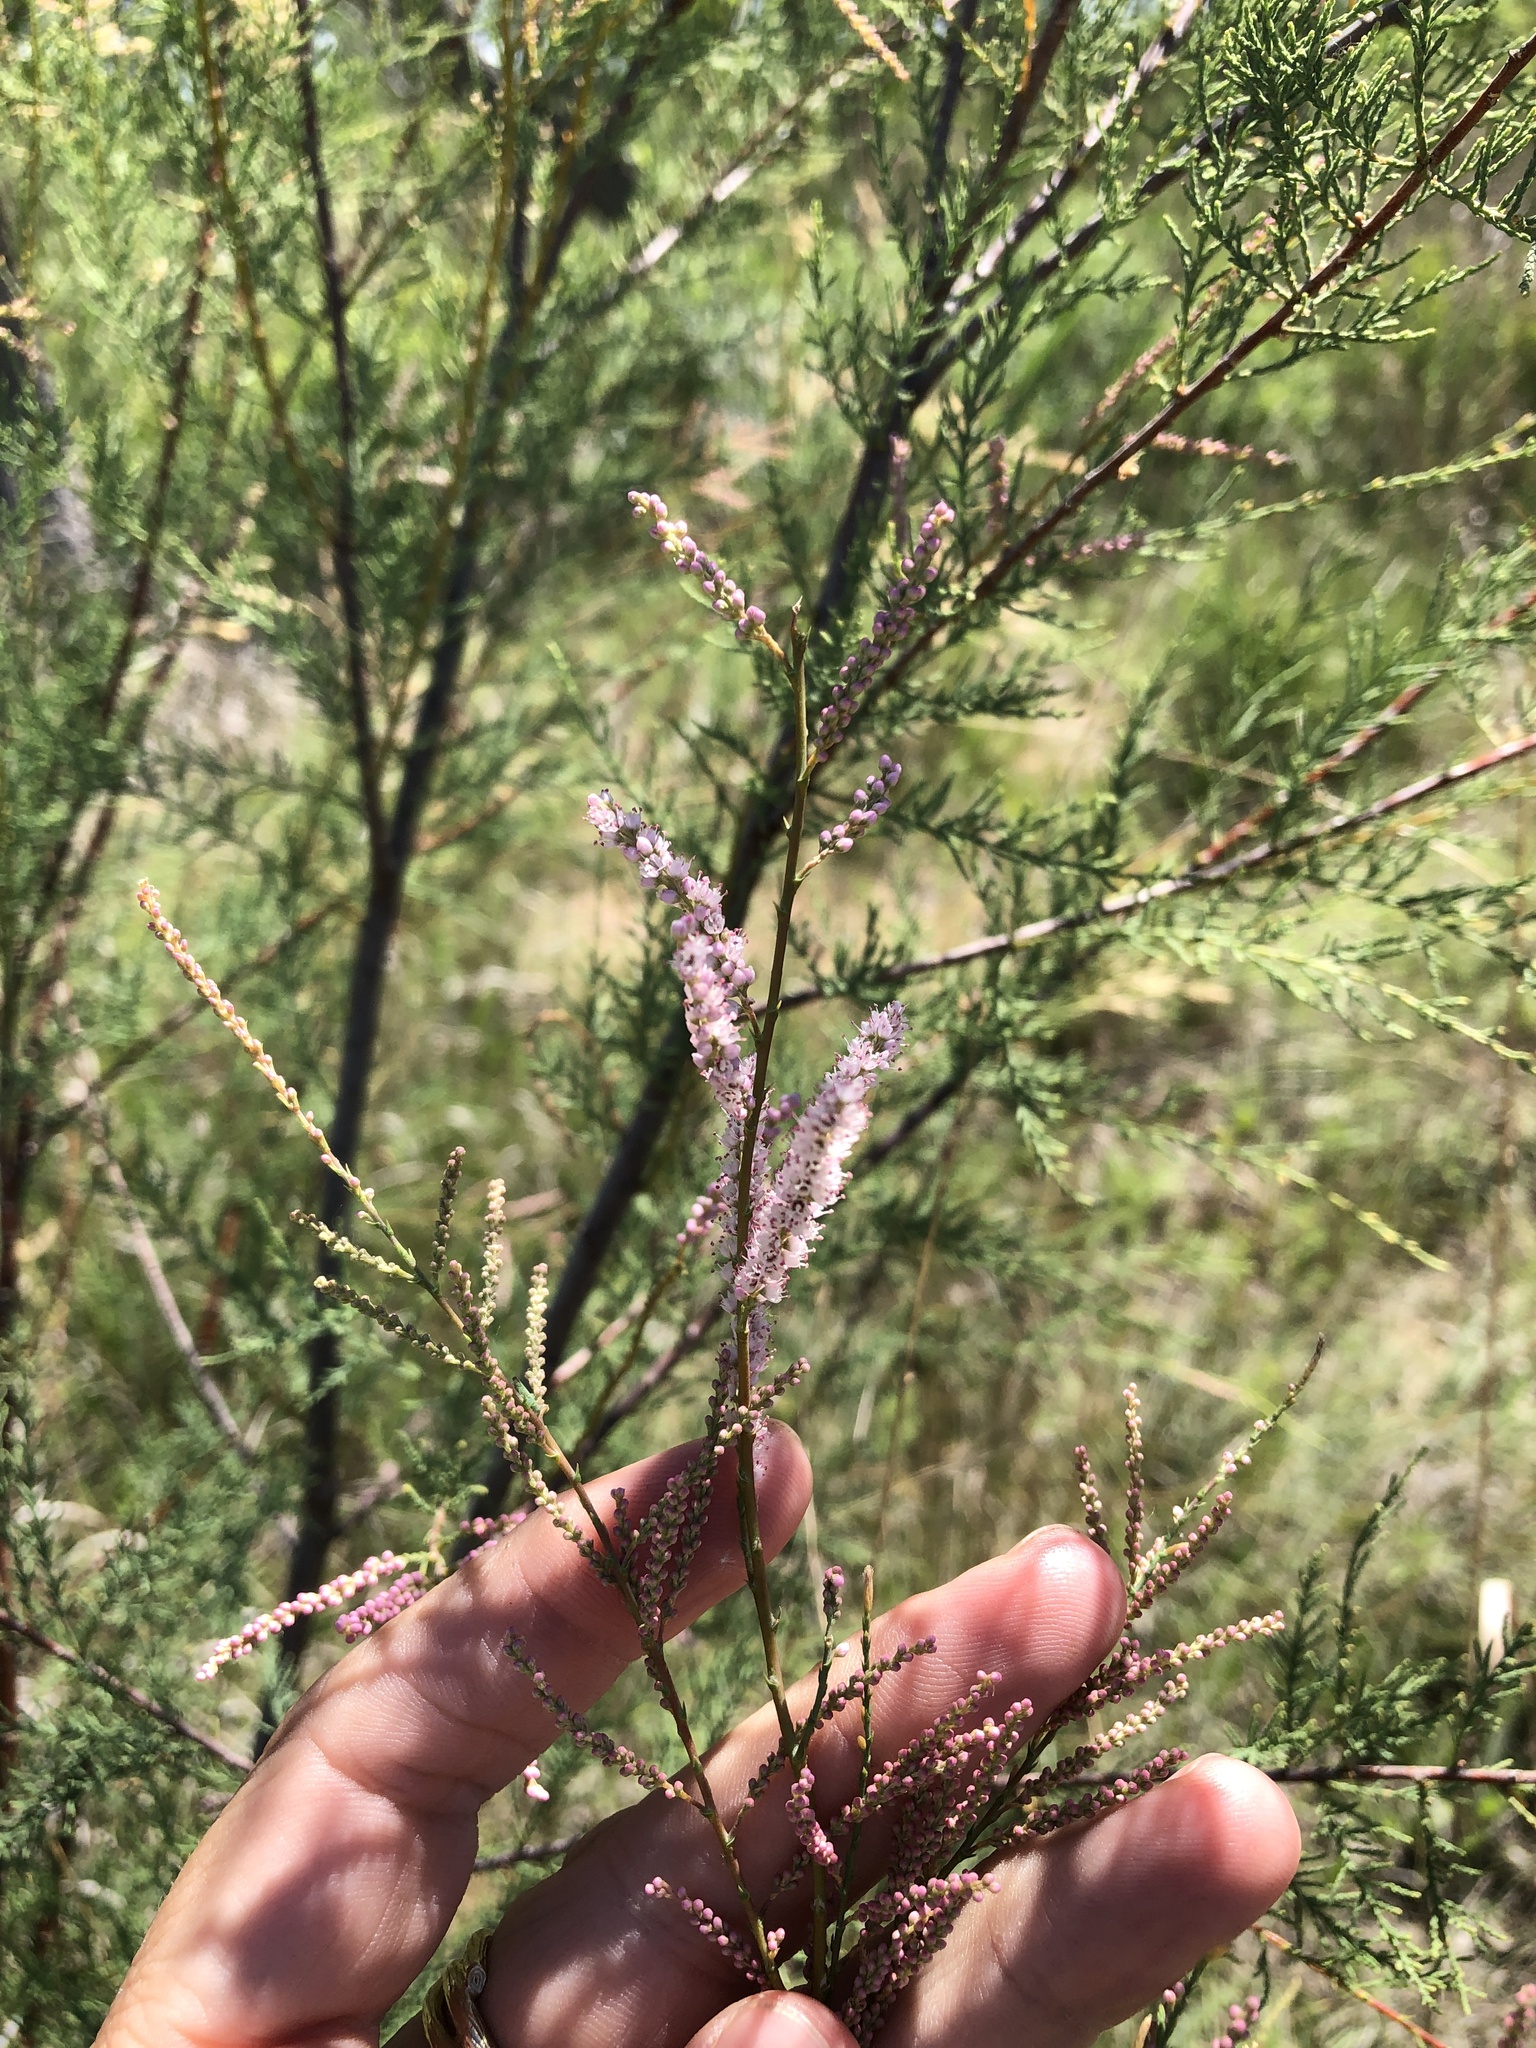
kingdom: Plantae
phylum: Tracheophyta
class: Magnoliopsida
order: Caryophyllales
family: Tamaricaceae
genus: Tamarix
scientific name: Tamarix
